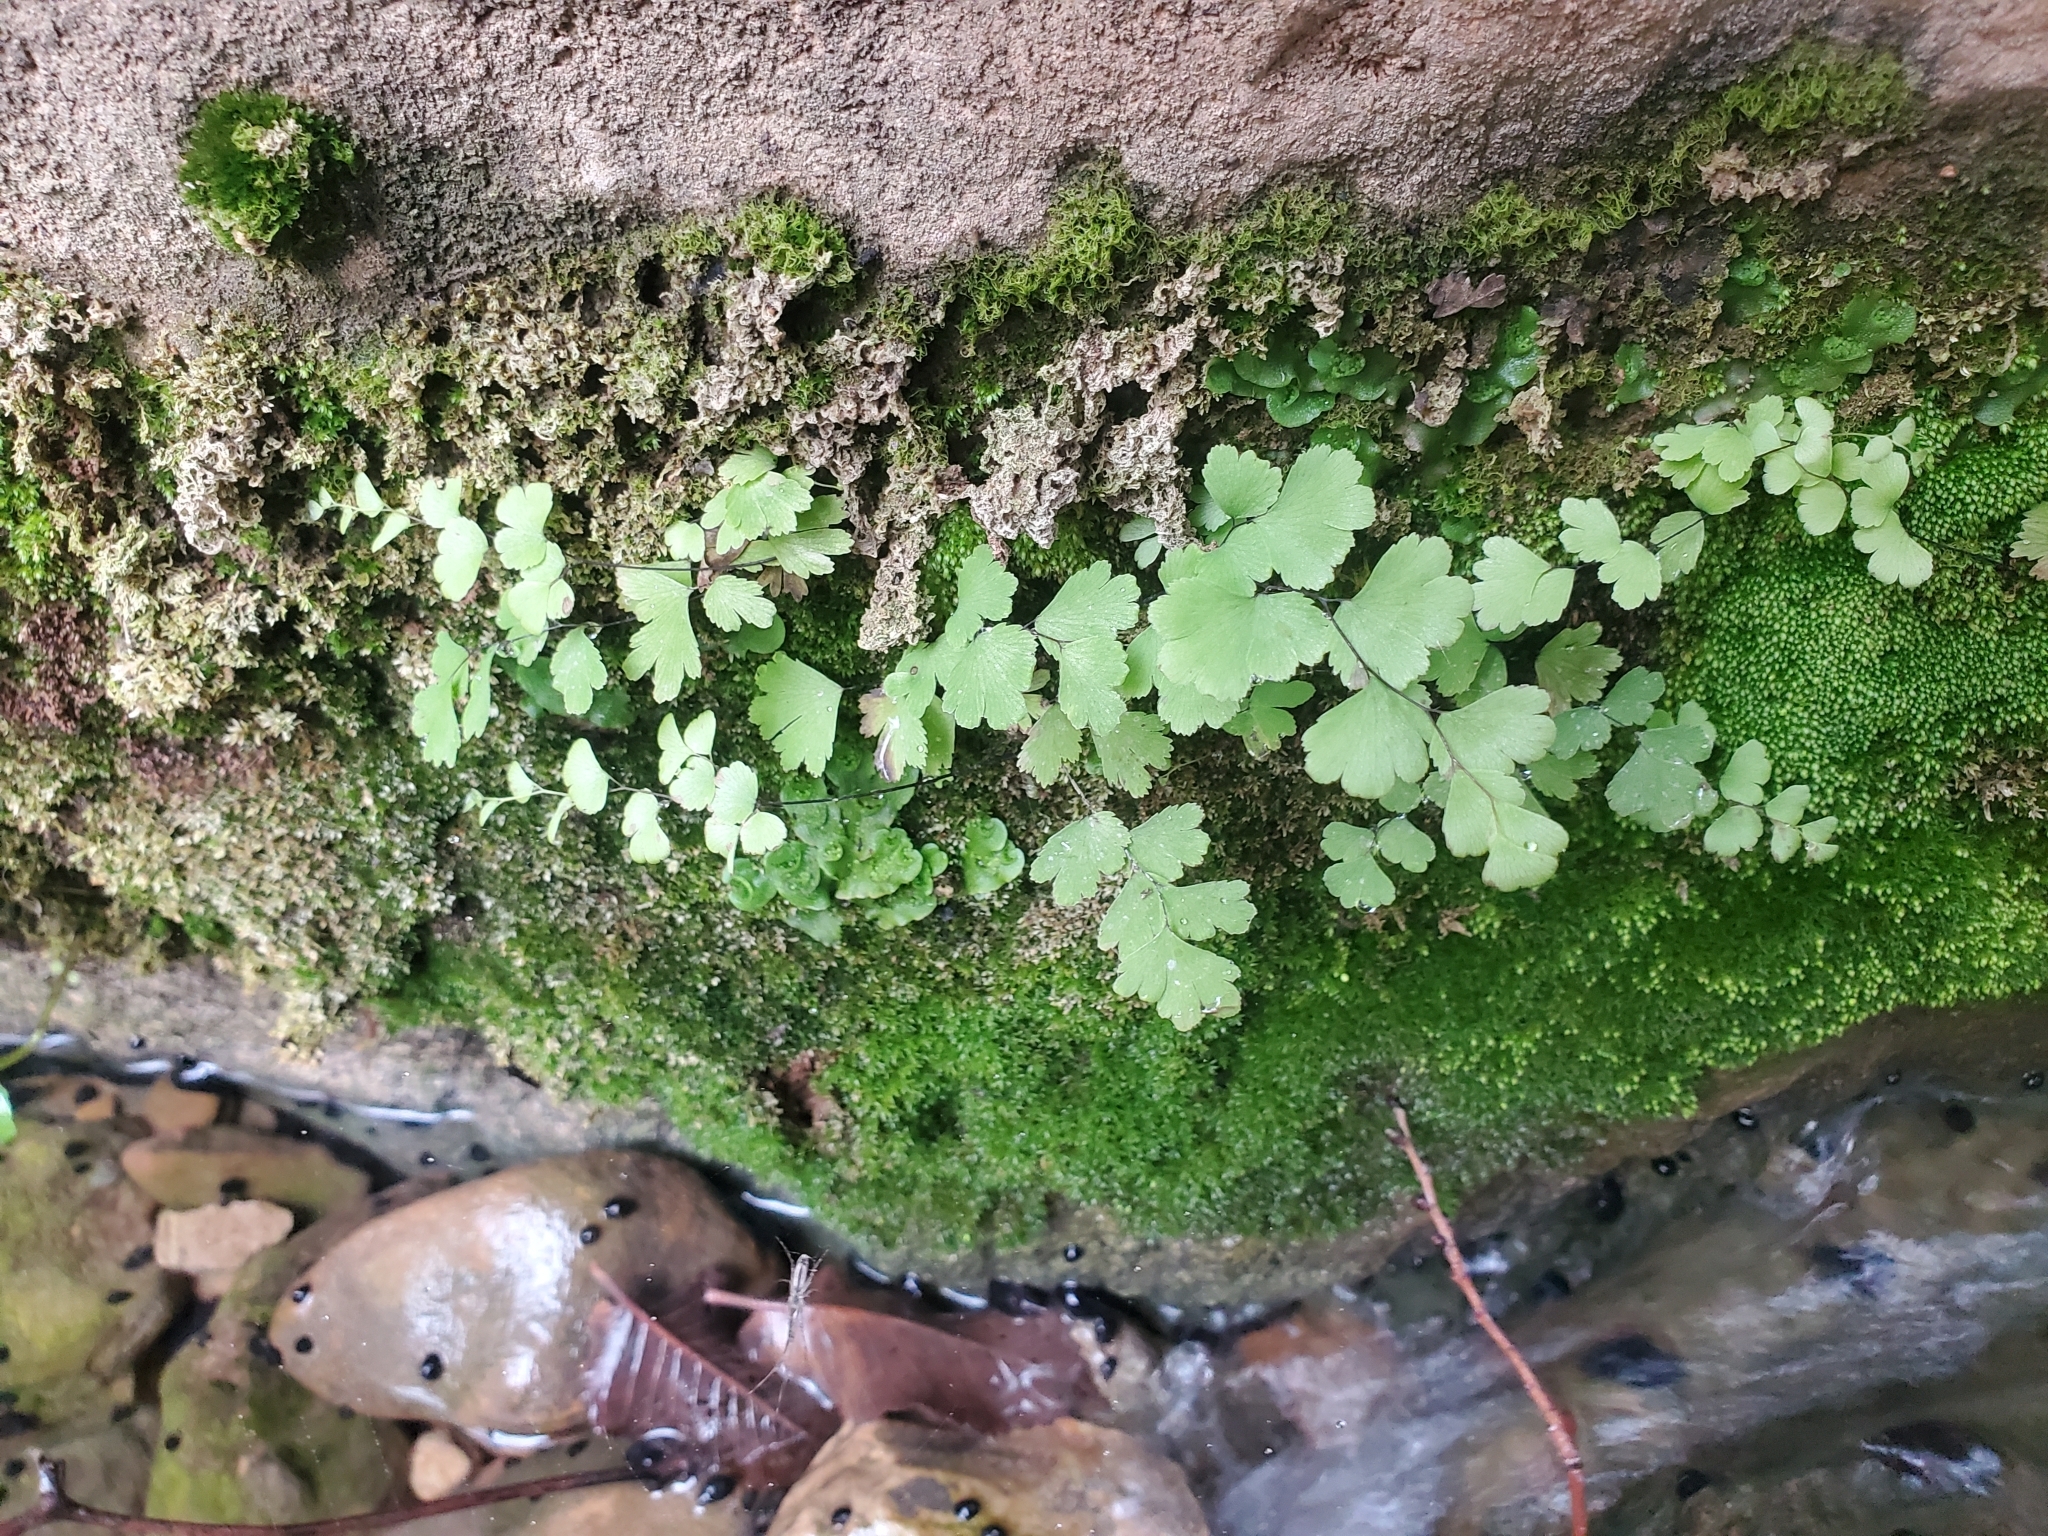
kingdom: Plantae
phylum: Tracheophyta
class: Polypodiopsida
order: Polypodiales
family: Pteridaceae
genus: Adiantum
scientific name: Adiantum capillus-veneris
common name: Maidenhair fern
